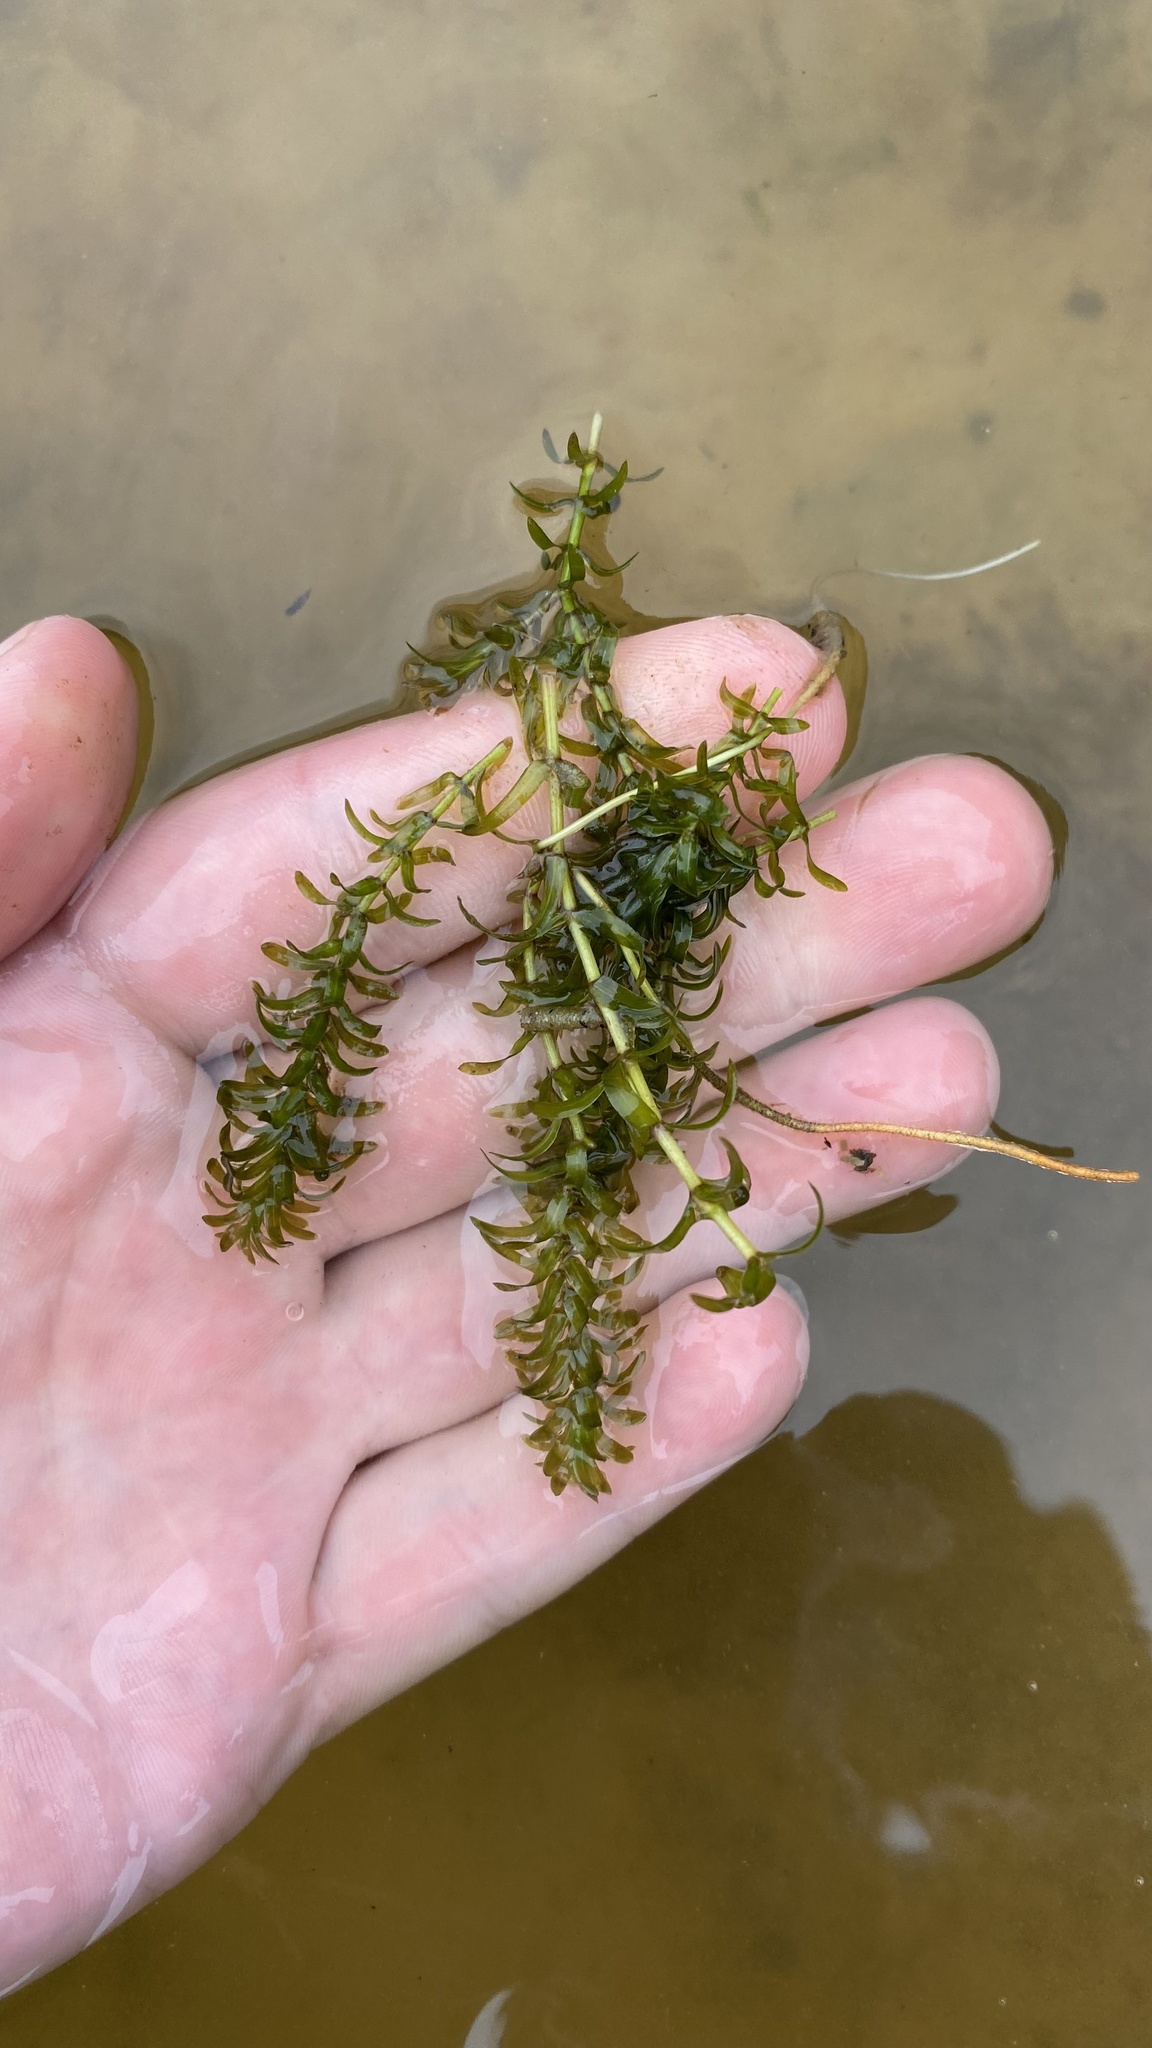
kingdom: Plantae
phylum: Tracheophyta
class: Liliopsida
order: Alismatales
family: Hydrocharitaceae
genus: Elodea
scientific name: Elodea canadensis
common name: Canadian waterweed
